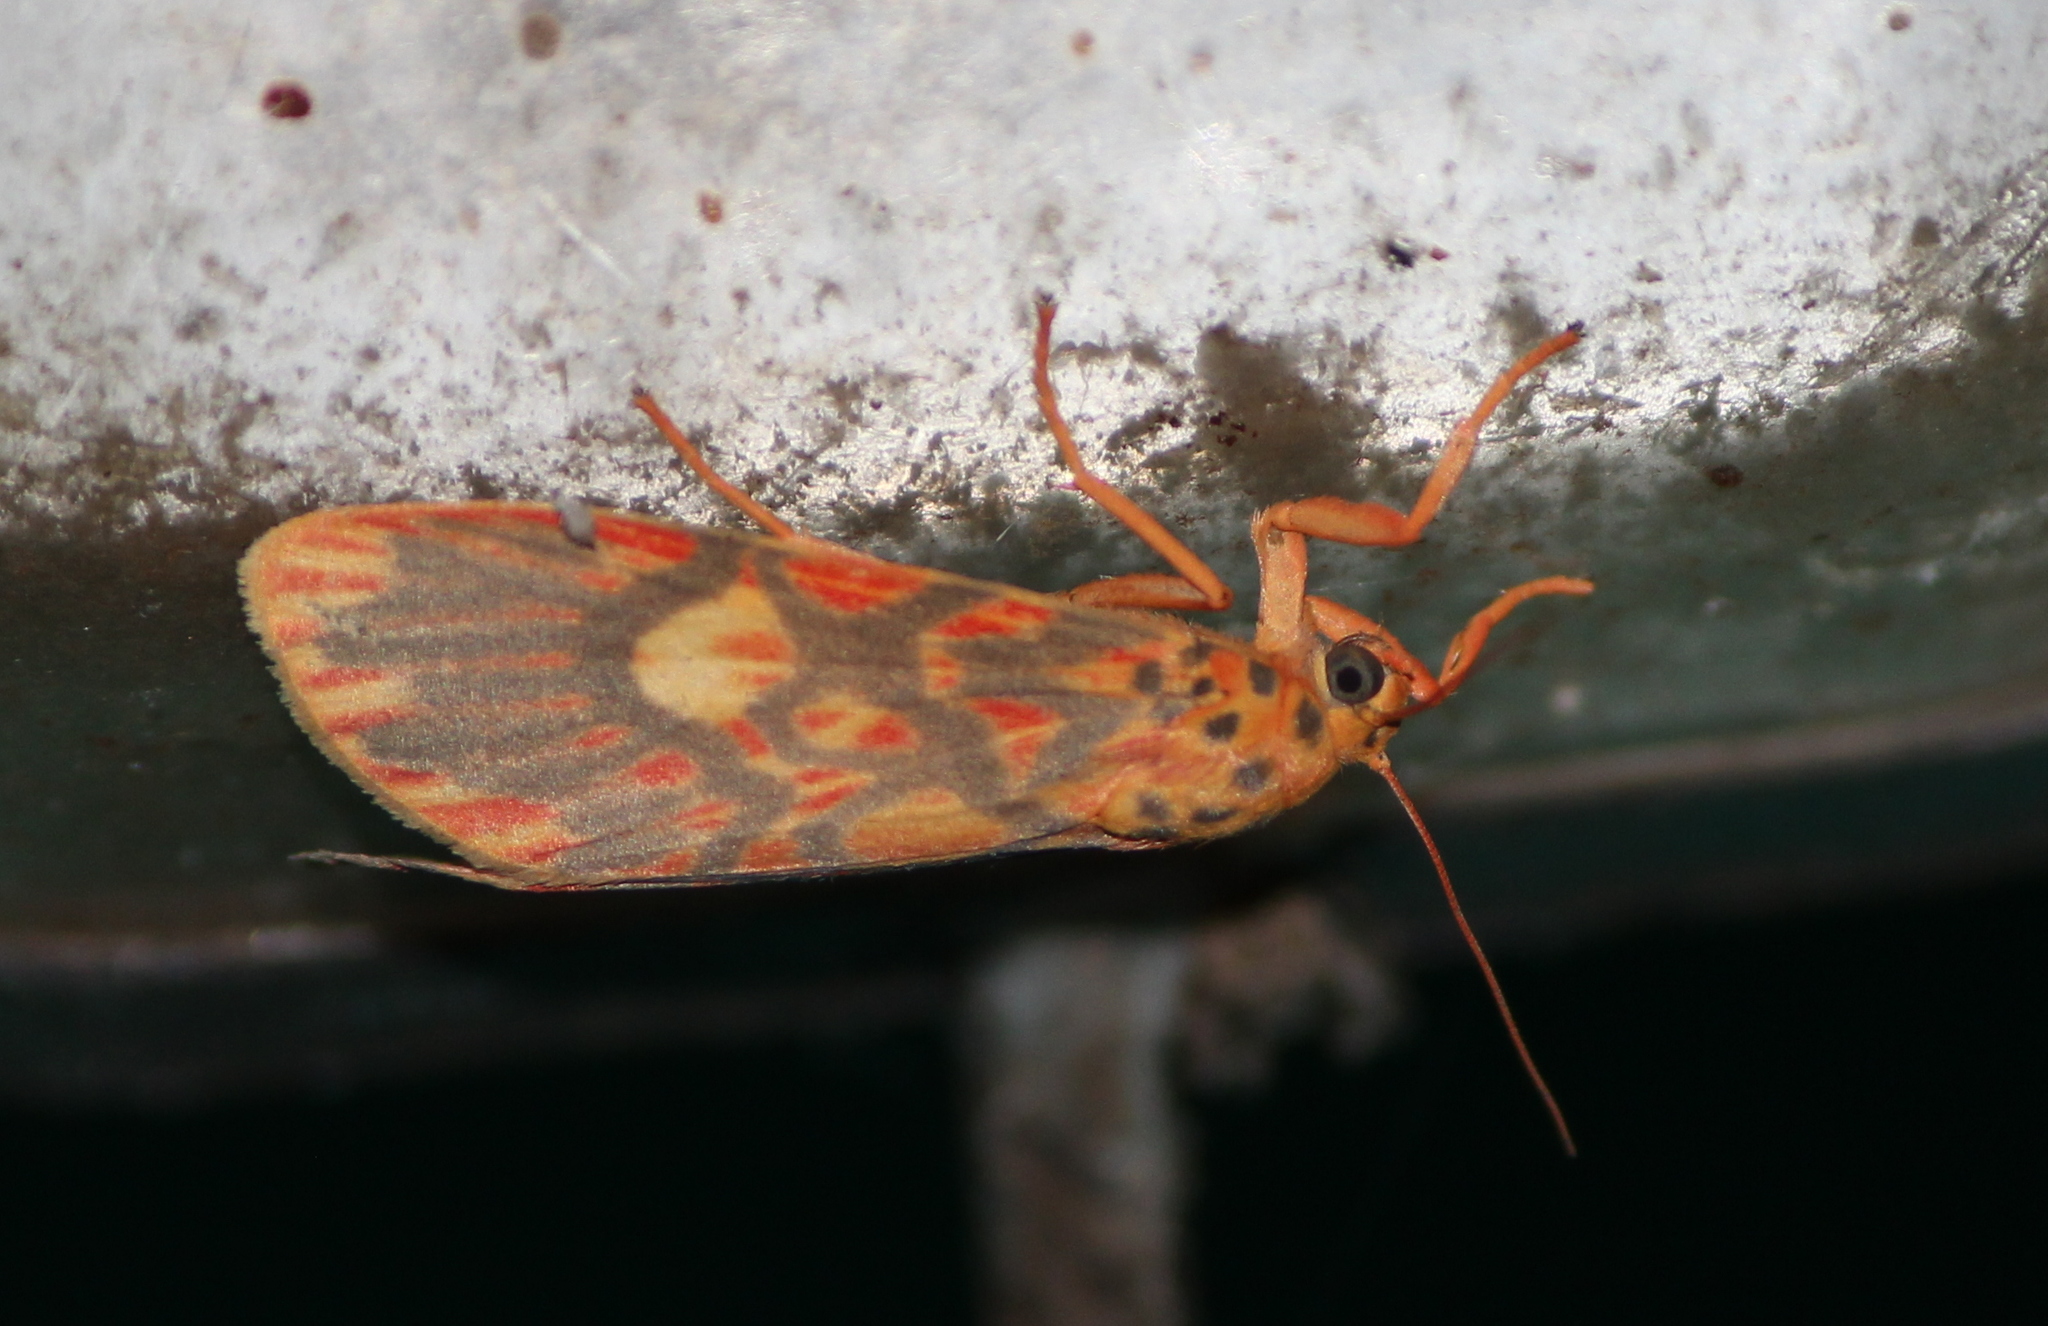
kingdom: Animalia
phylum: Arthropoda
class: Insecta
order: Lepidoptera
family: Erebidae
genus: Ammatho
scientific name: Ammatho cuneonotatus
